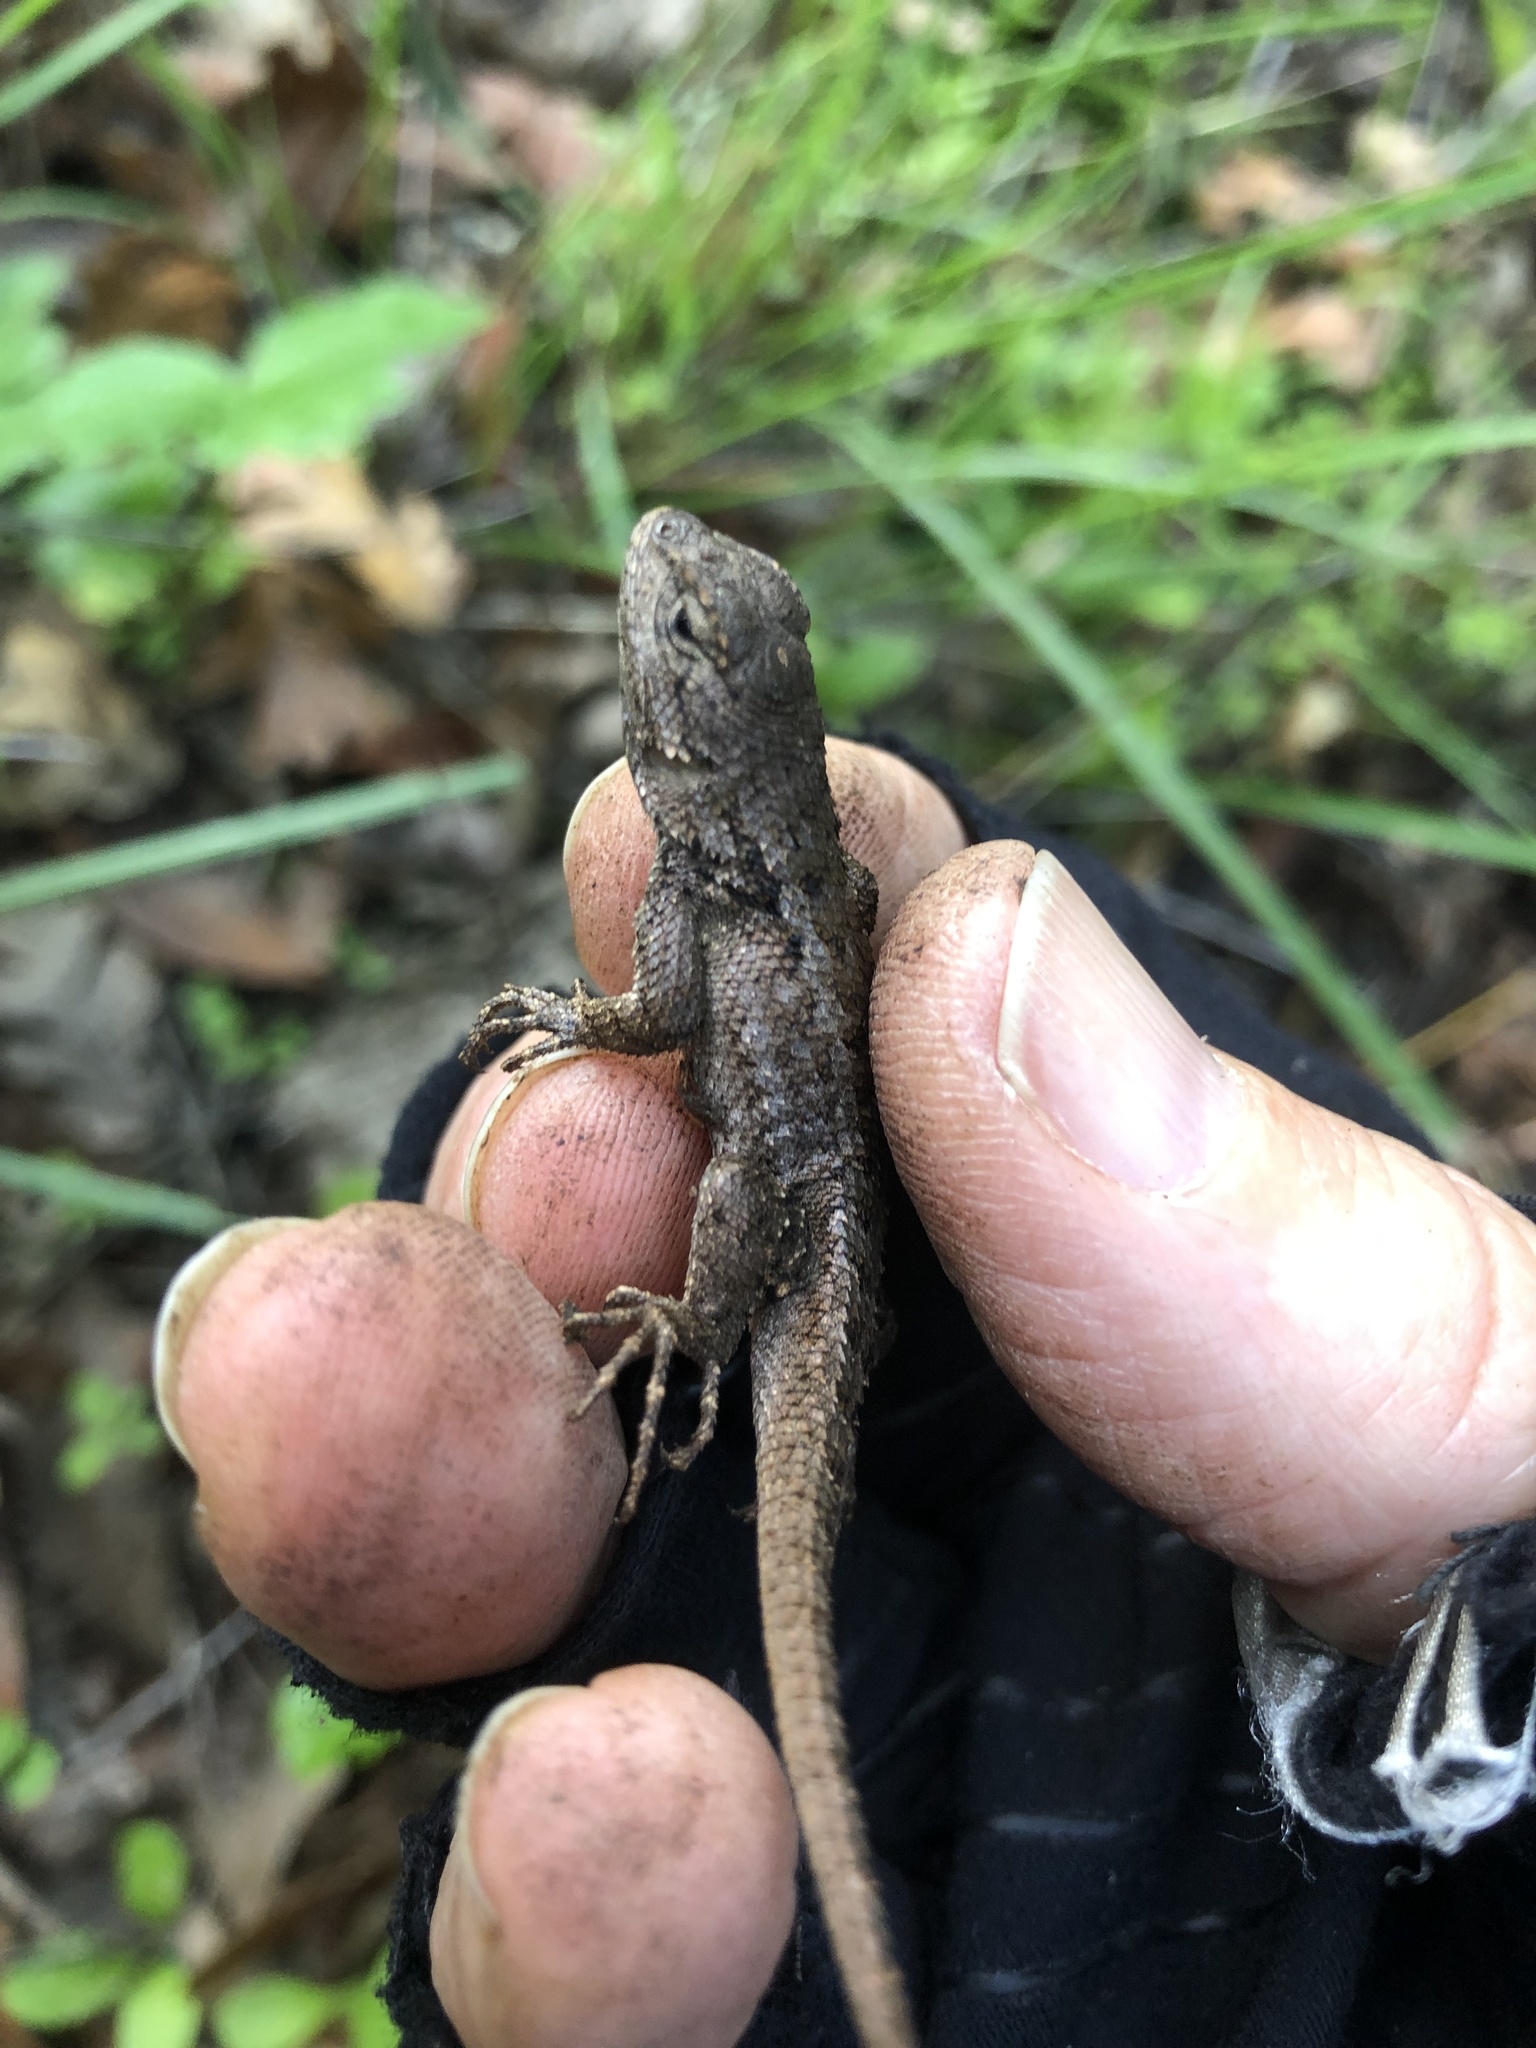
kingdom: Animalia
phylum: Chordata
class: Squamata
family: Phrynosomatidae
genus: Sceloporus
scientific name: Sceloporus occidentalis
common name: Western fence lizard
